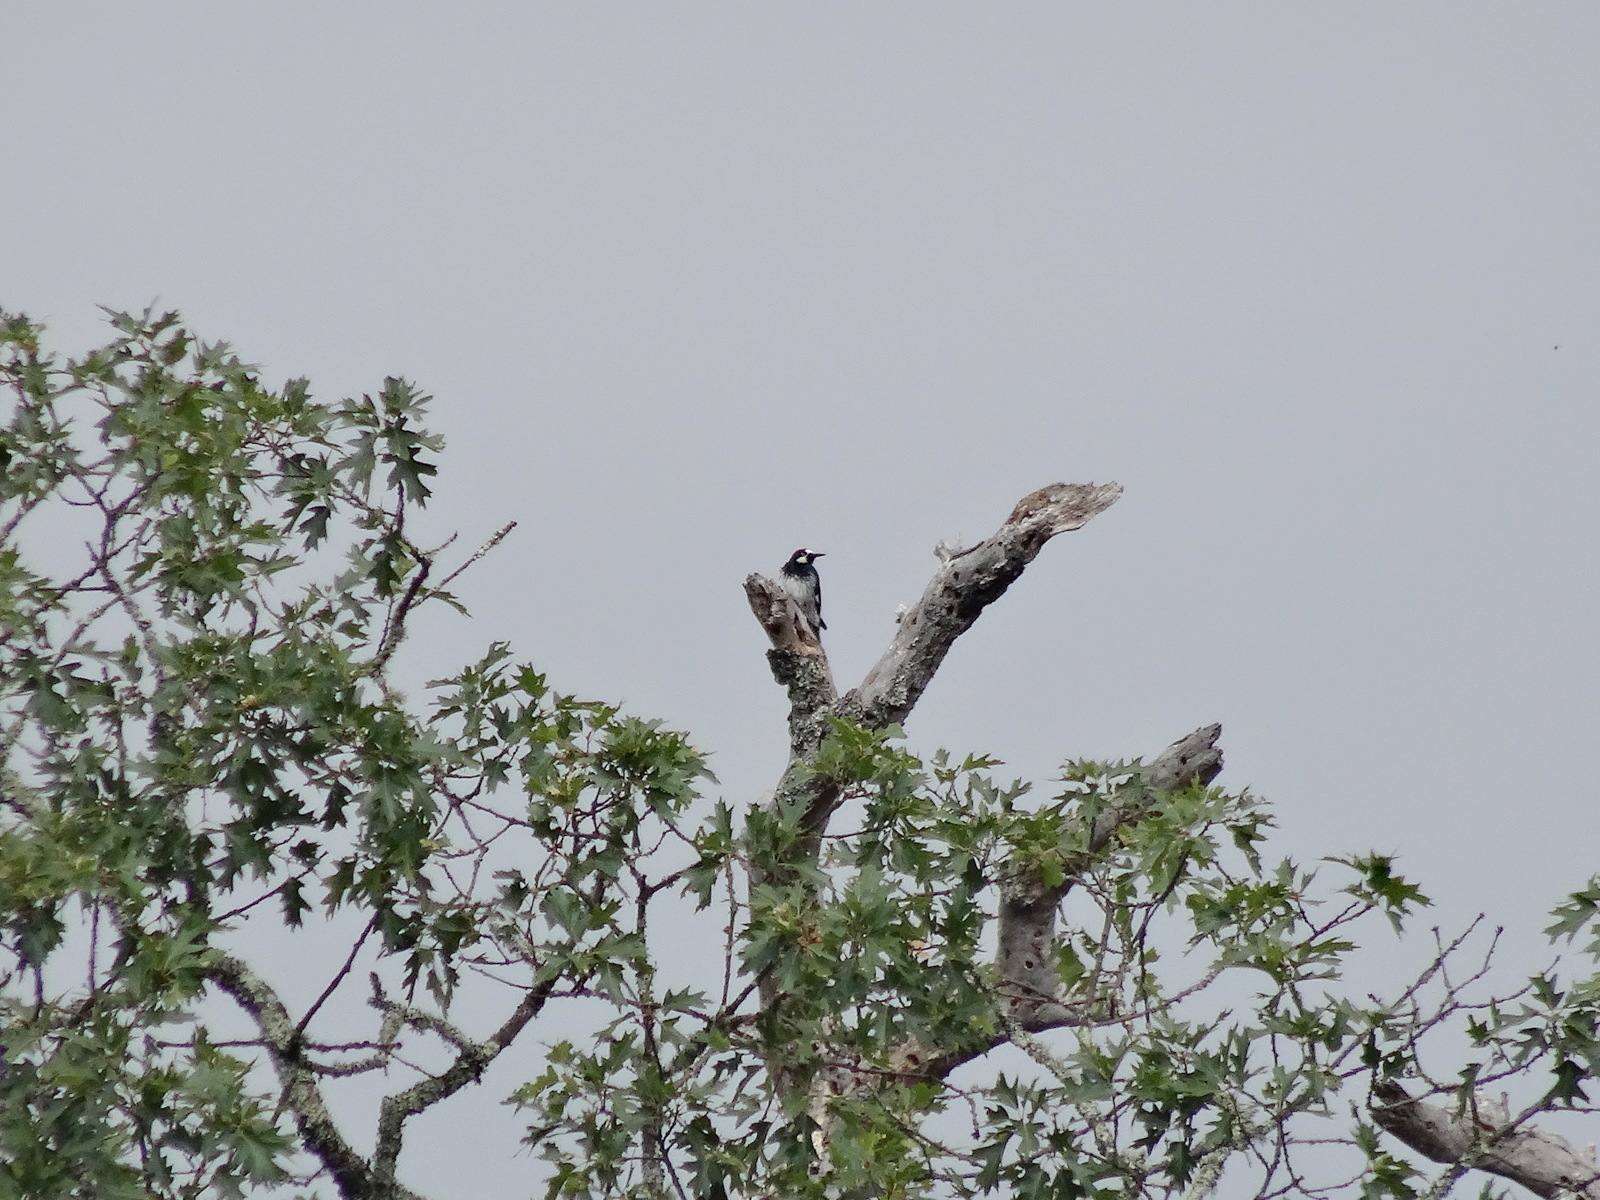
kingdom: Animalia
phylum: Chordata
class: Aves
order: Piciformes
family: Picidae
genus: Melanerpes
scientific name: Melanerpes formicivorus
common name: Acorn woodpecker
